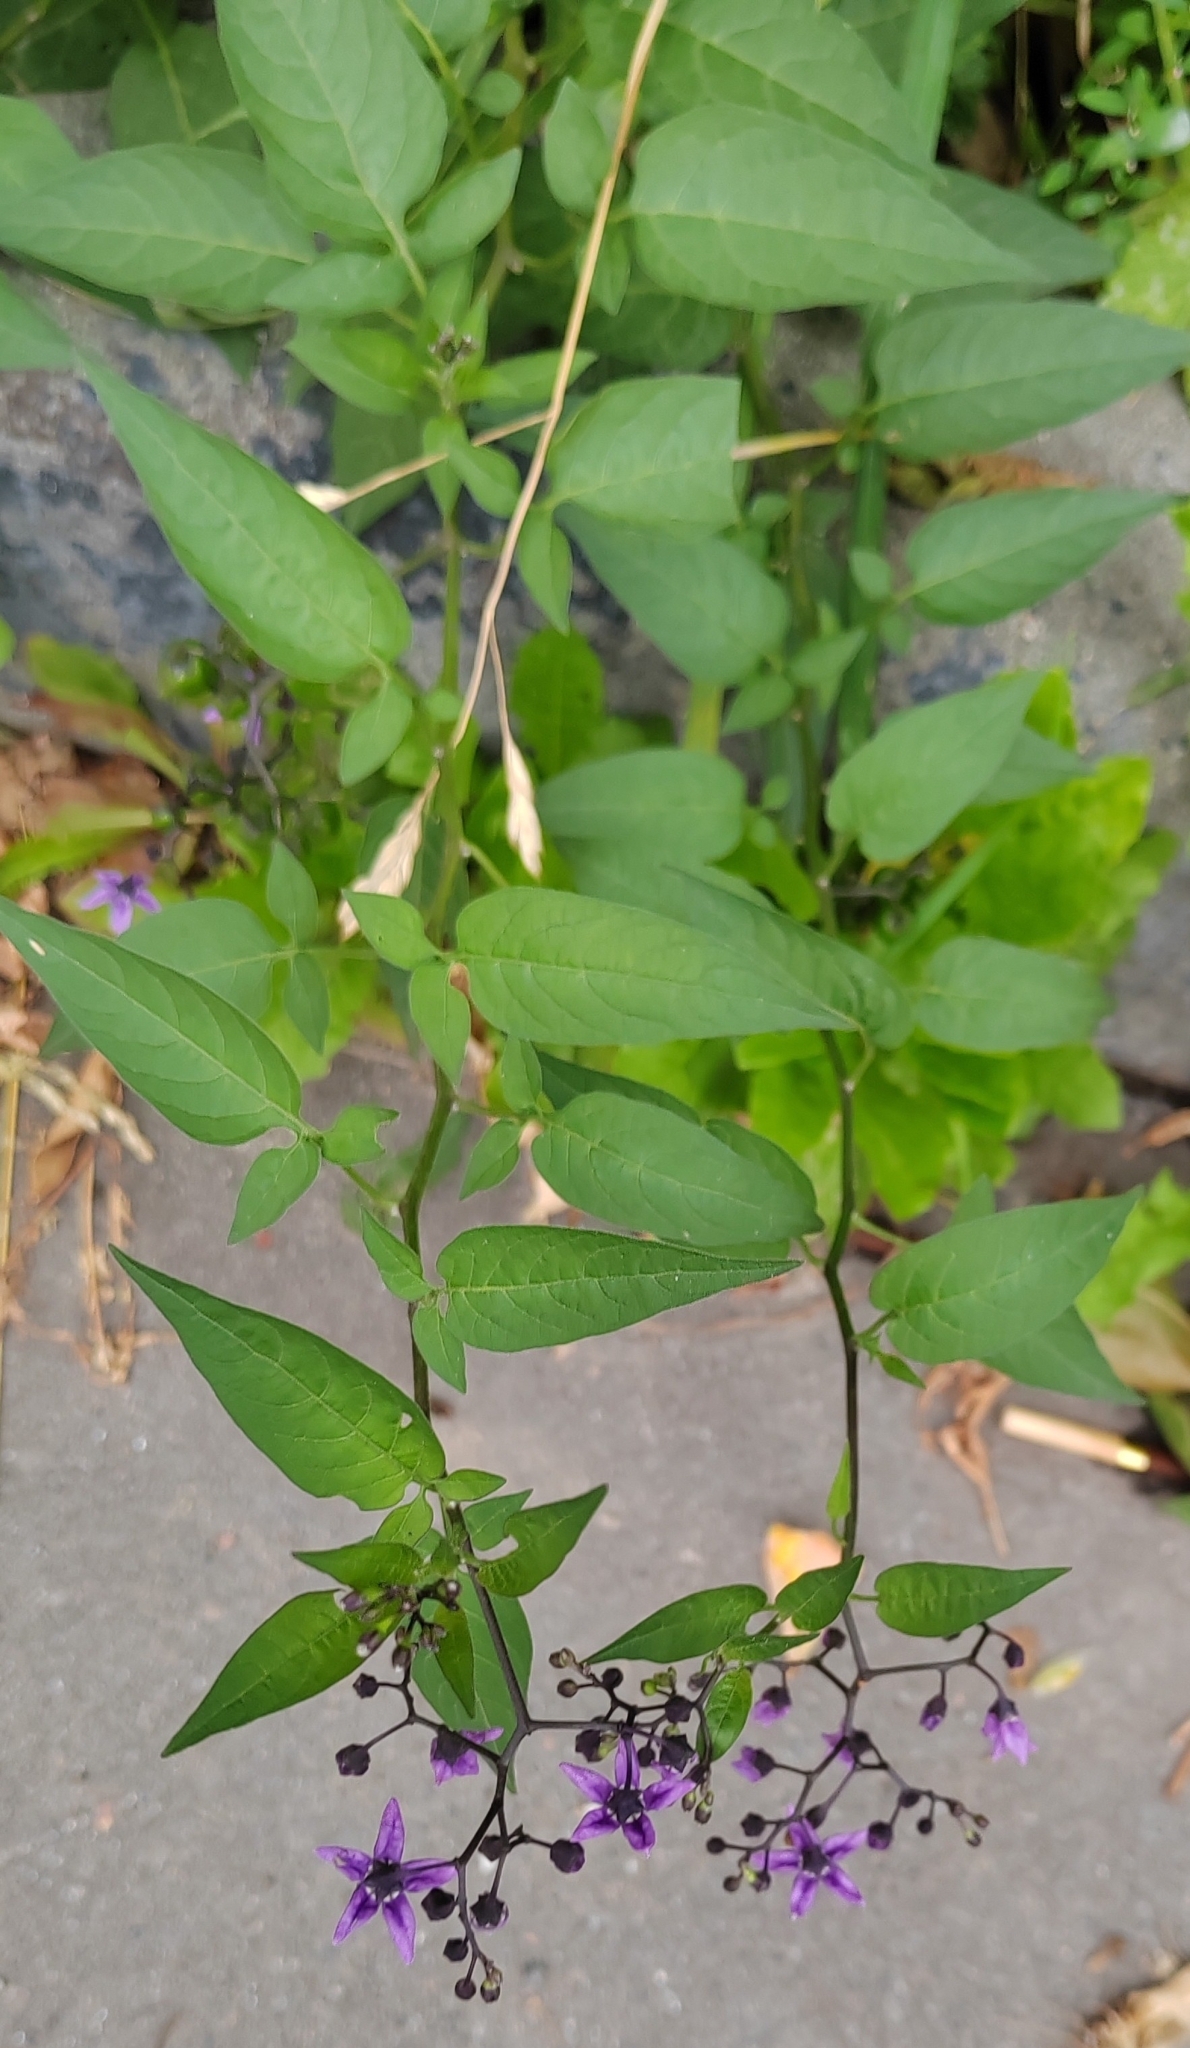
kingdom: Plantae
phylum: Tracheophyta
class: Magnoliopsida
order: Solanales
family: Solanaceae
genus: Solanum
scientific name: Solanum dulcamara
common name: Climbing nightshade
